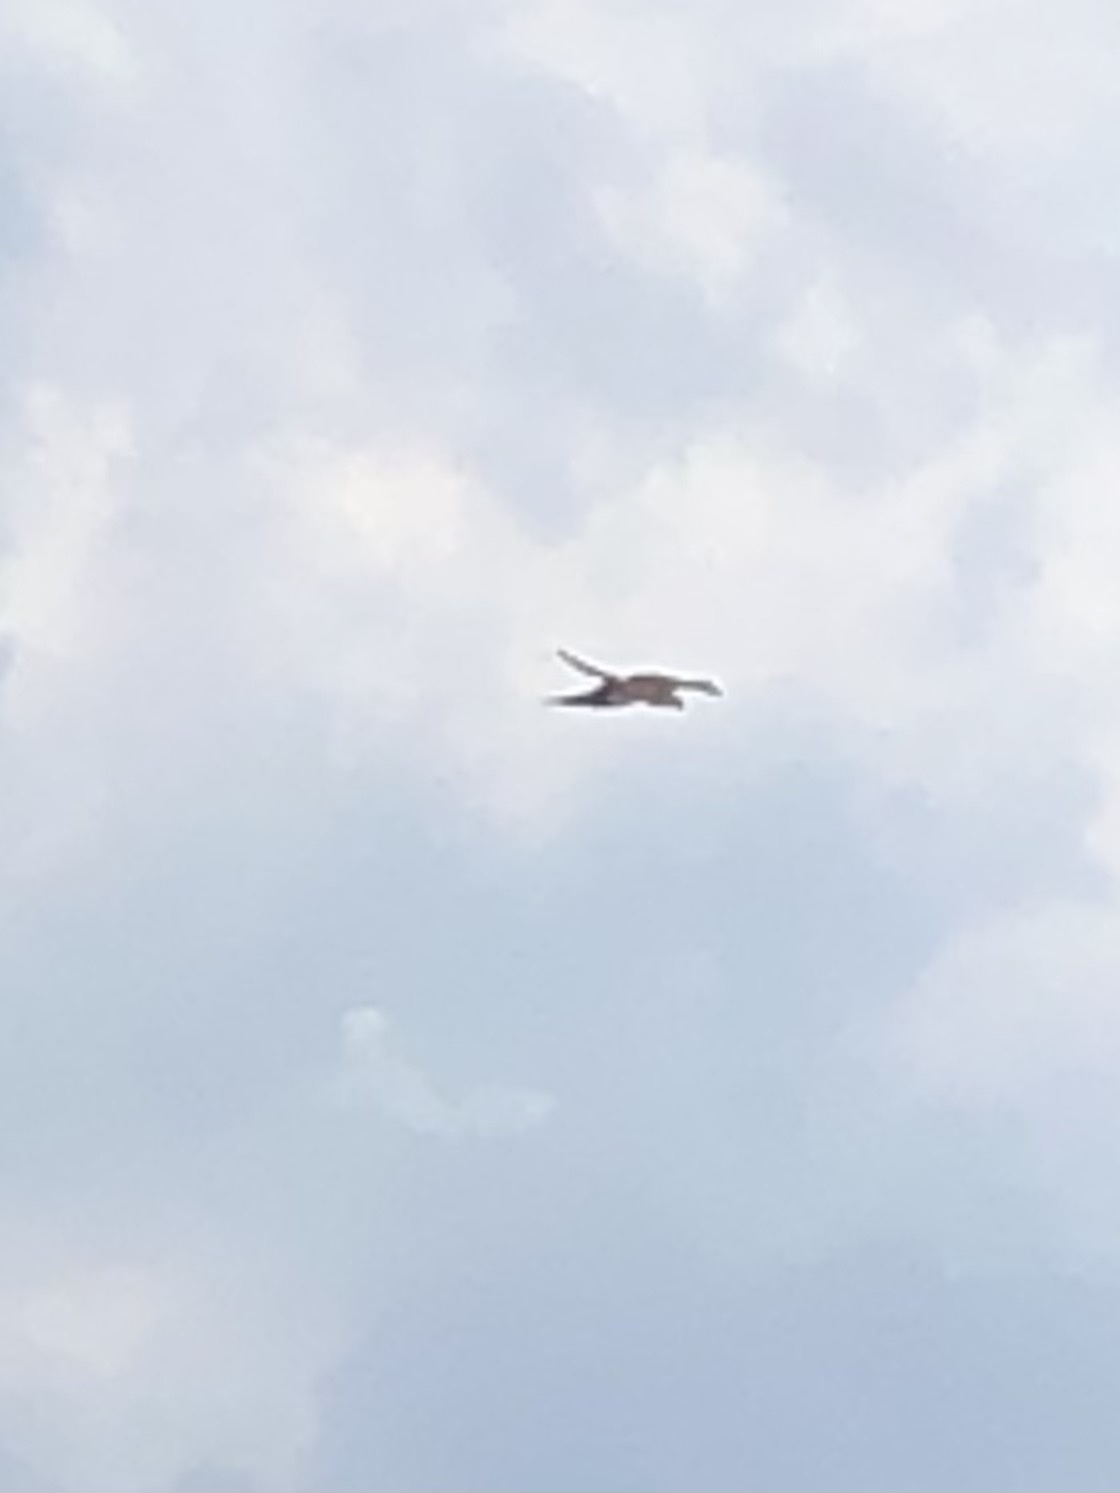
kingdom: Animalia
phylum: Chordata
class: Aves
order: Accipitriformes
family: Accipitridae
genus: Elanoides
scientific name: Elanoides forficatus
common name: Swallow-tailed kite
